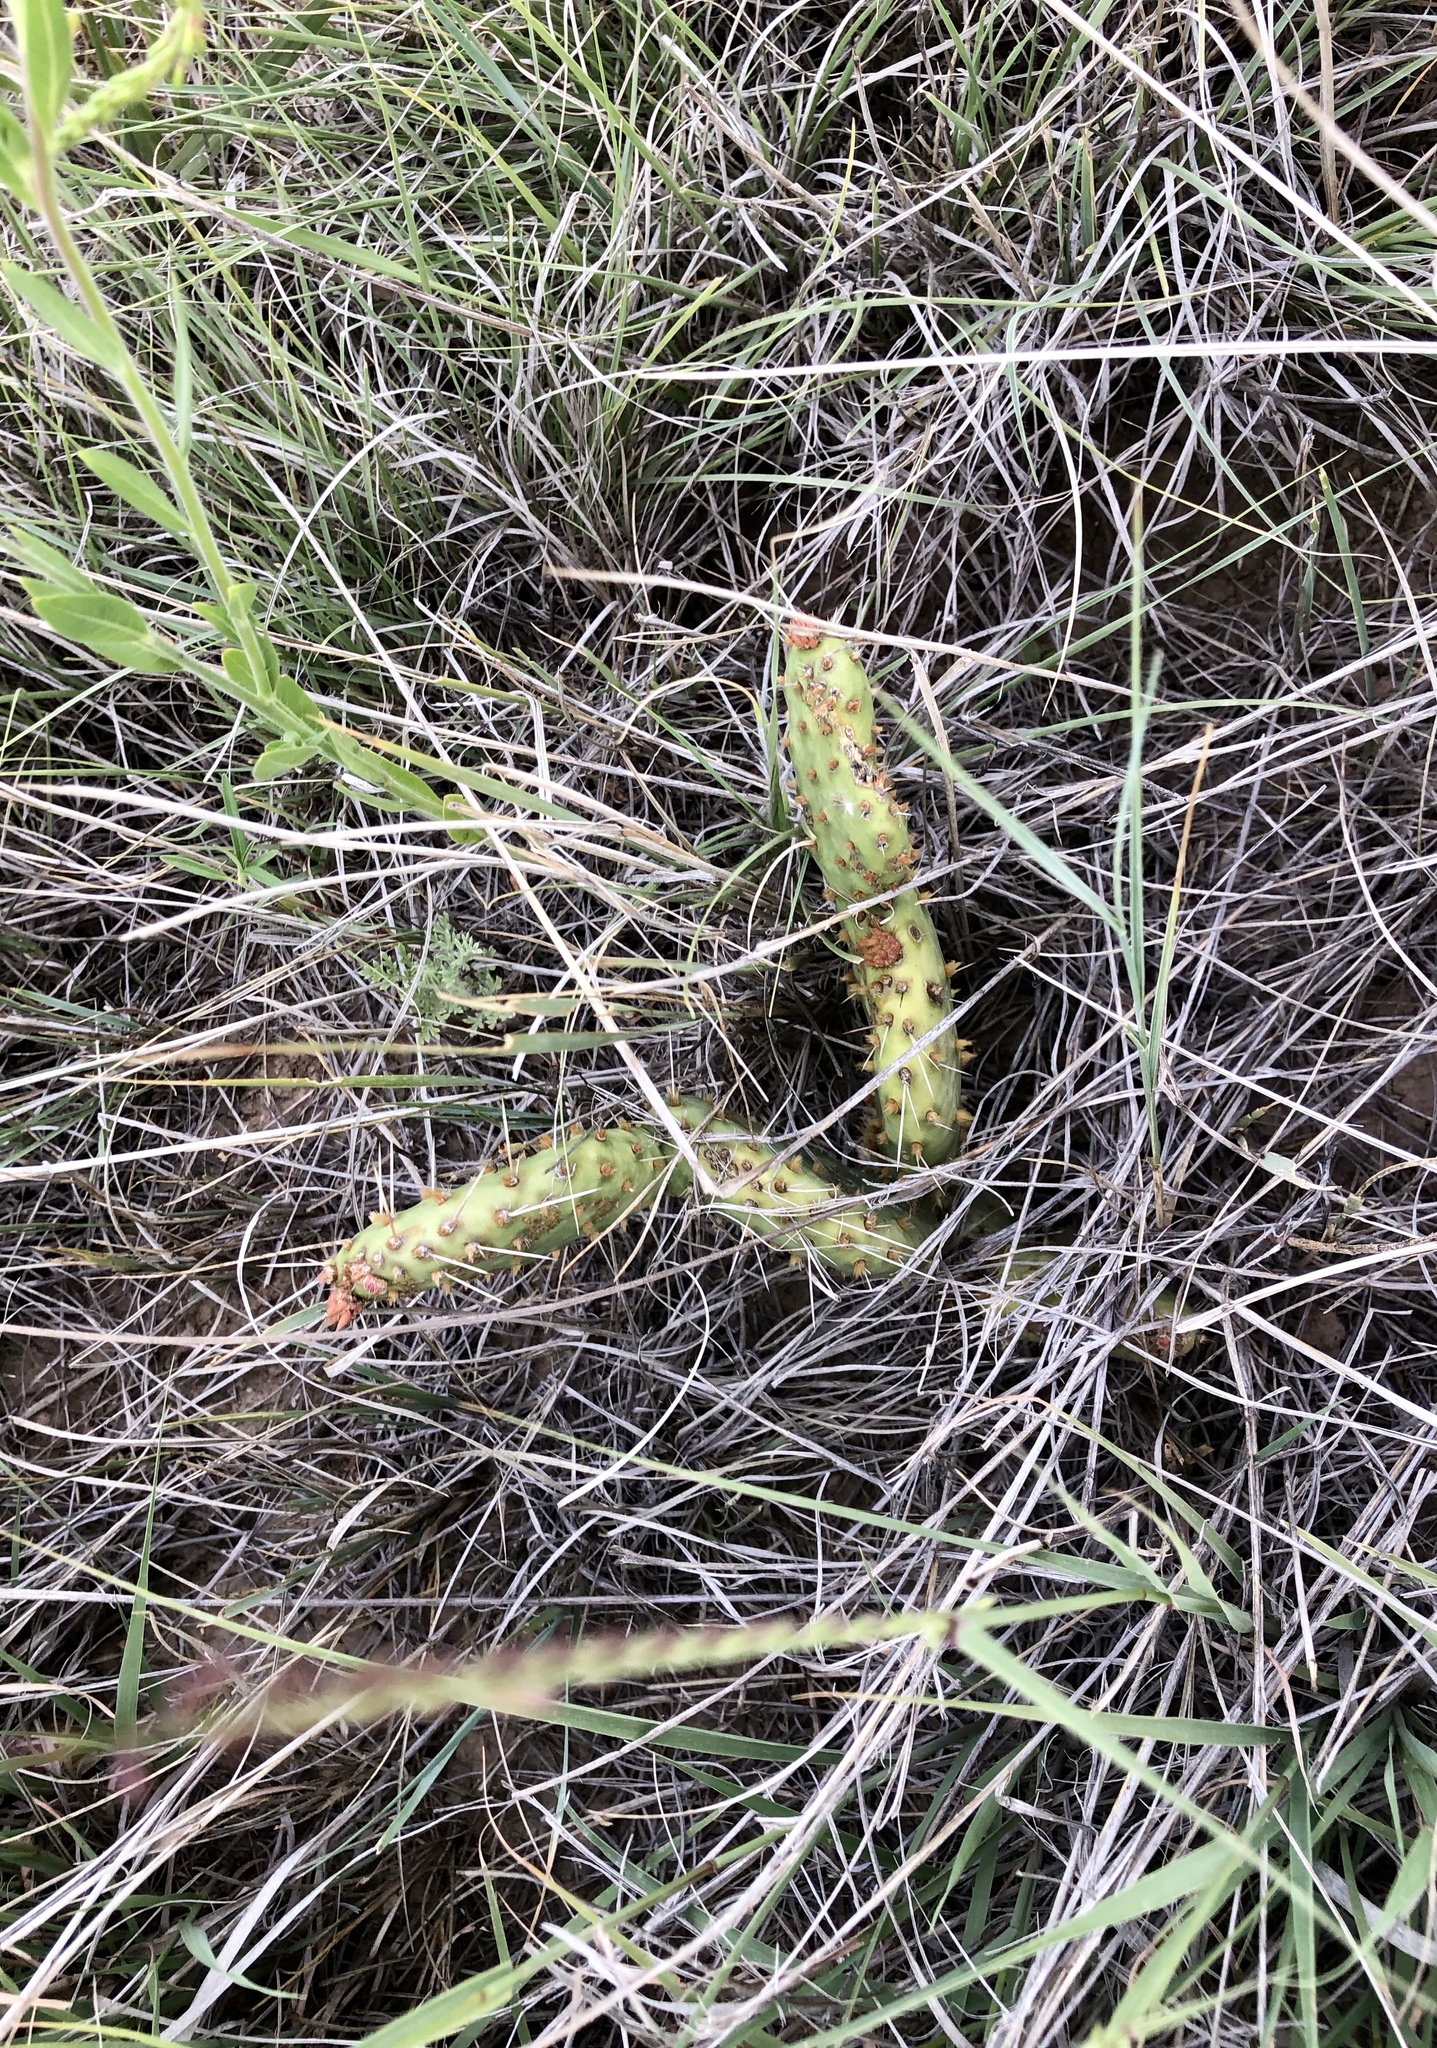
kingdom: Plantae
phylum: Tracheophyta
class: Magnoliopsida
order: Caryophyllales
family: Cactaceae
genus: Opuntia
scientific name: Opuntia cymochila
